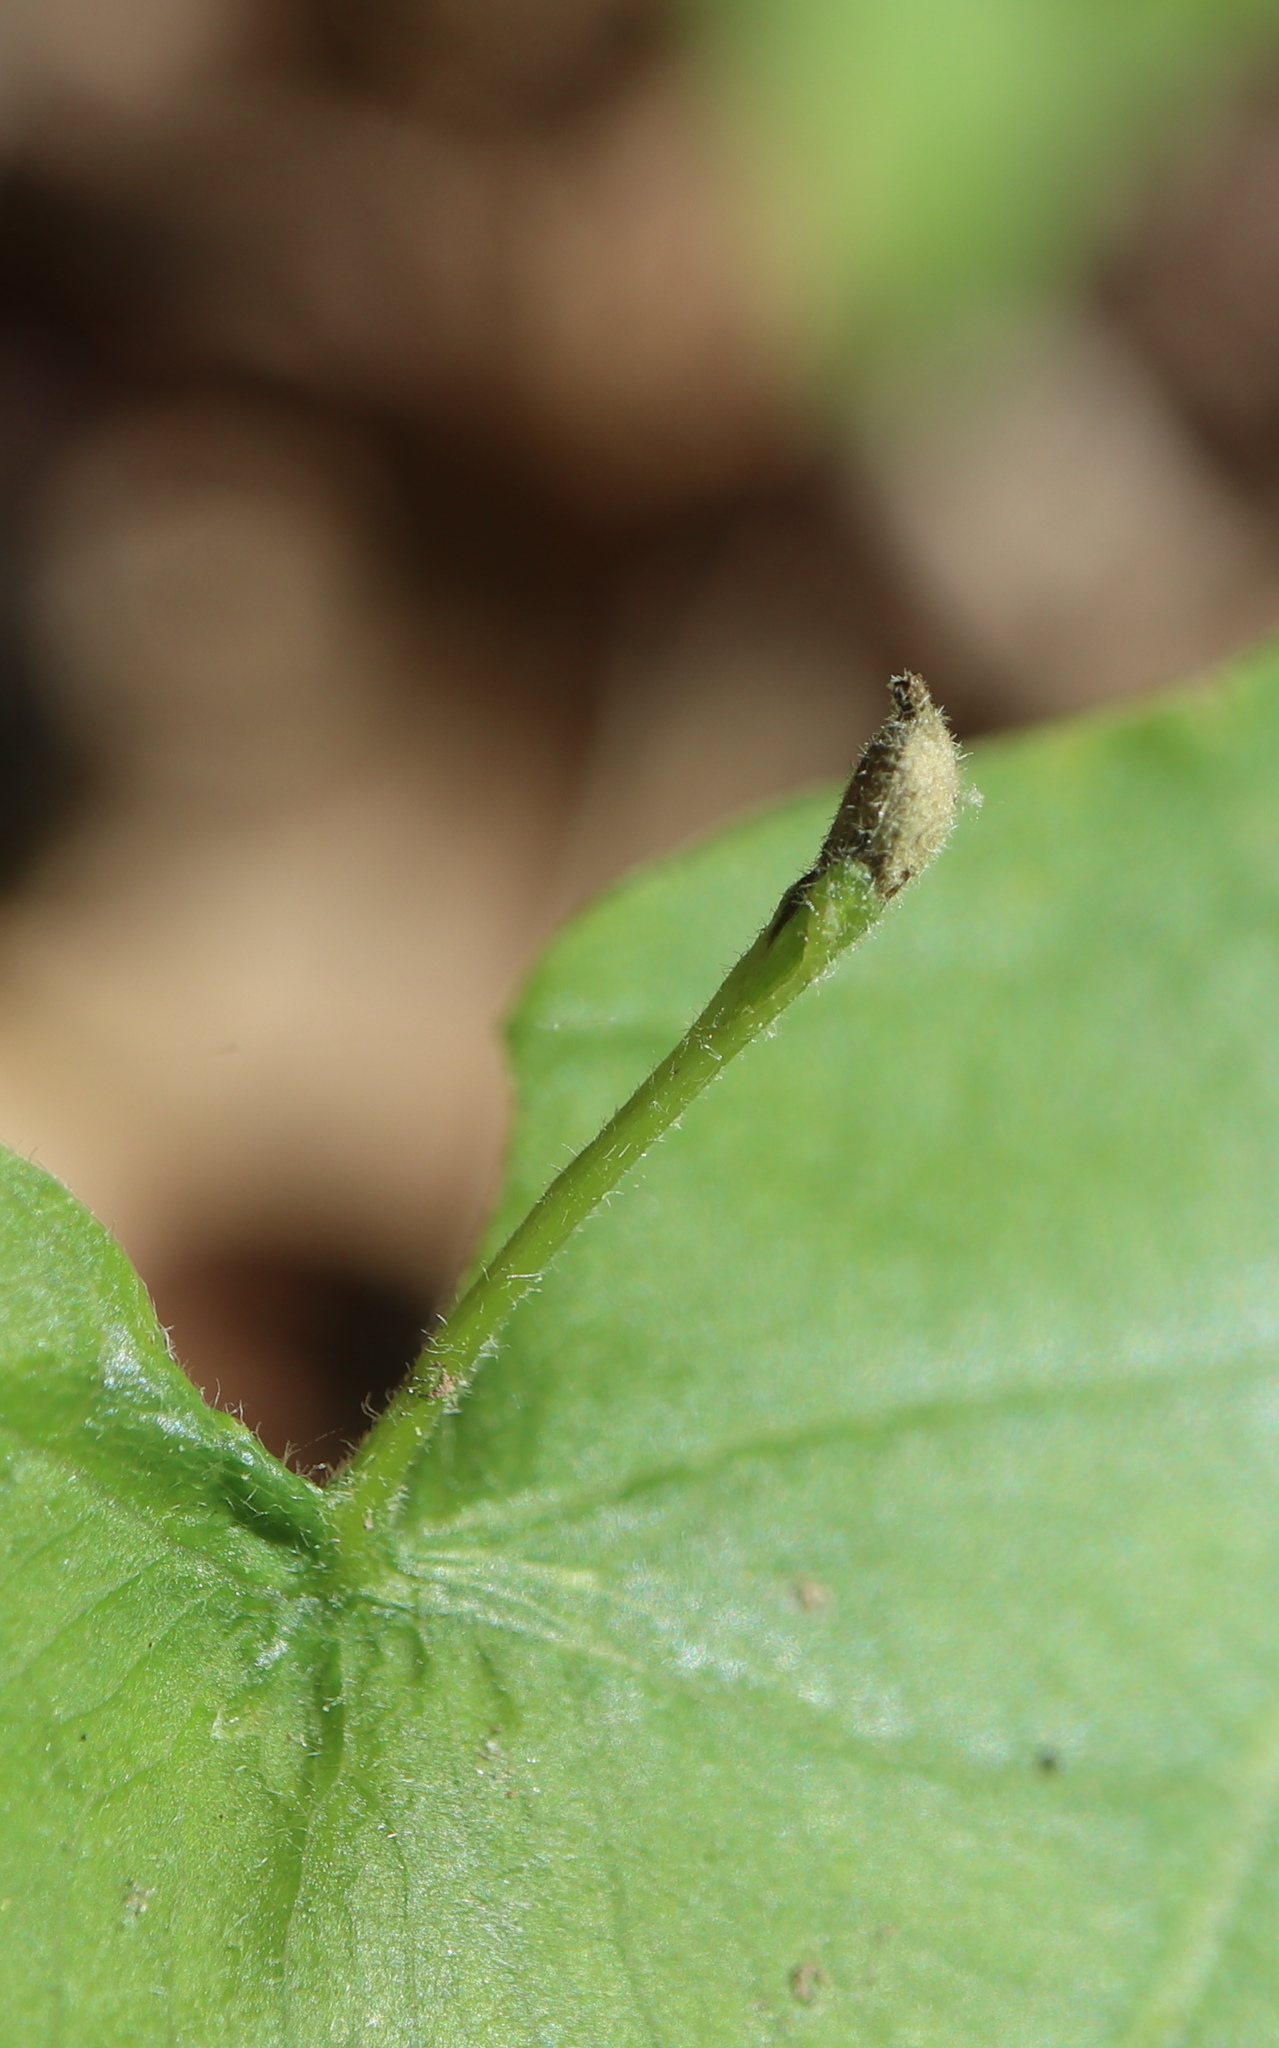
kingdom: Animalia
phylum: Arthropoda
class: Insecta
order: Hymenoptera
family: Cynipidae
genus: Andricus
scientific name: Andricus
